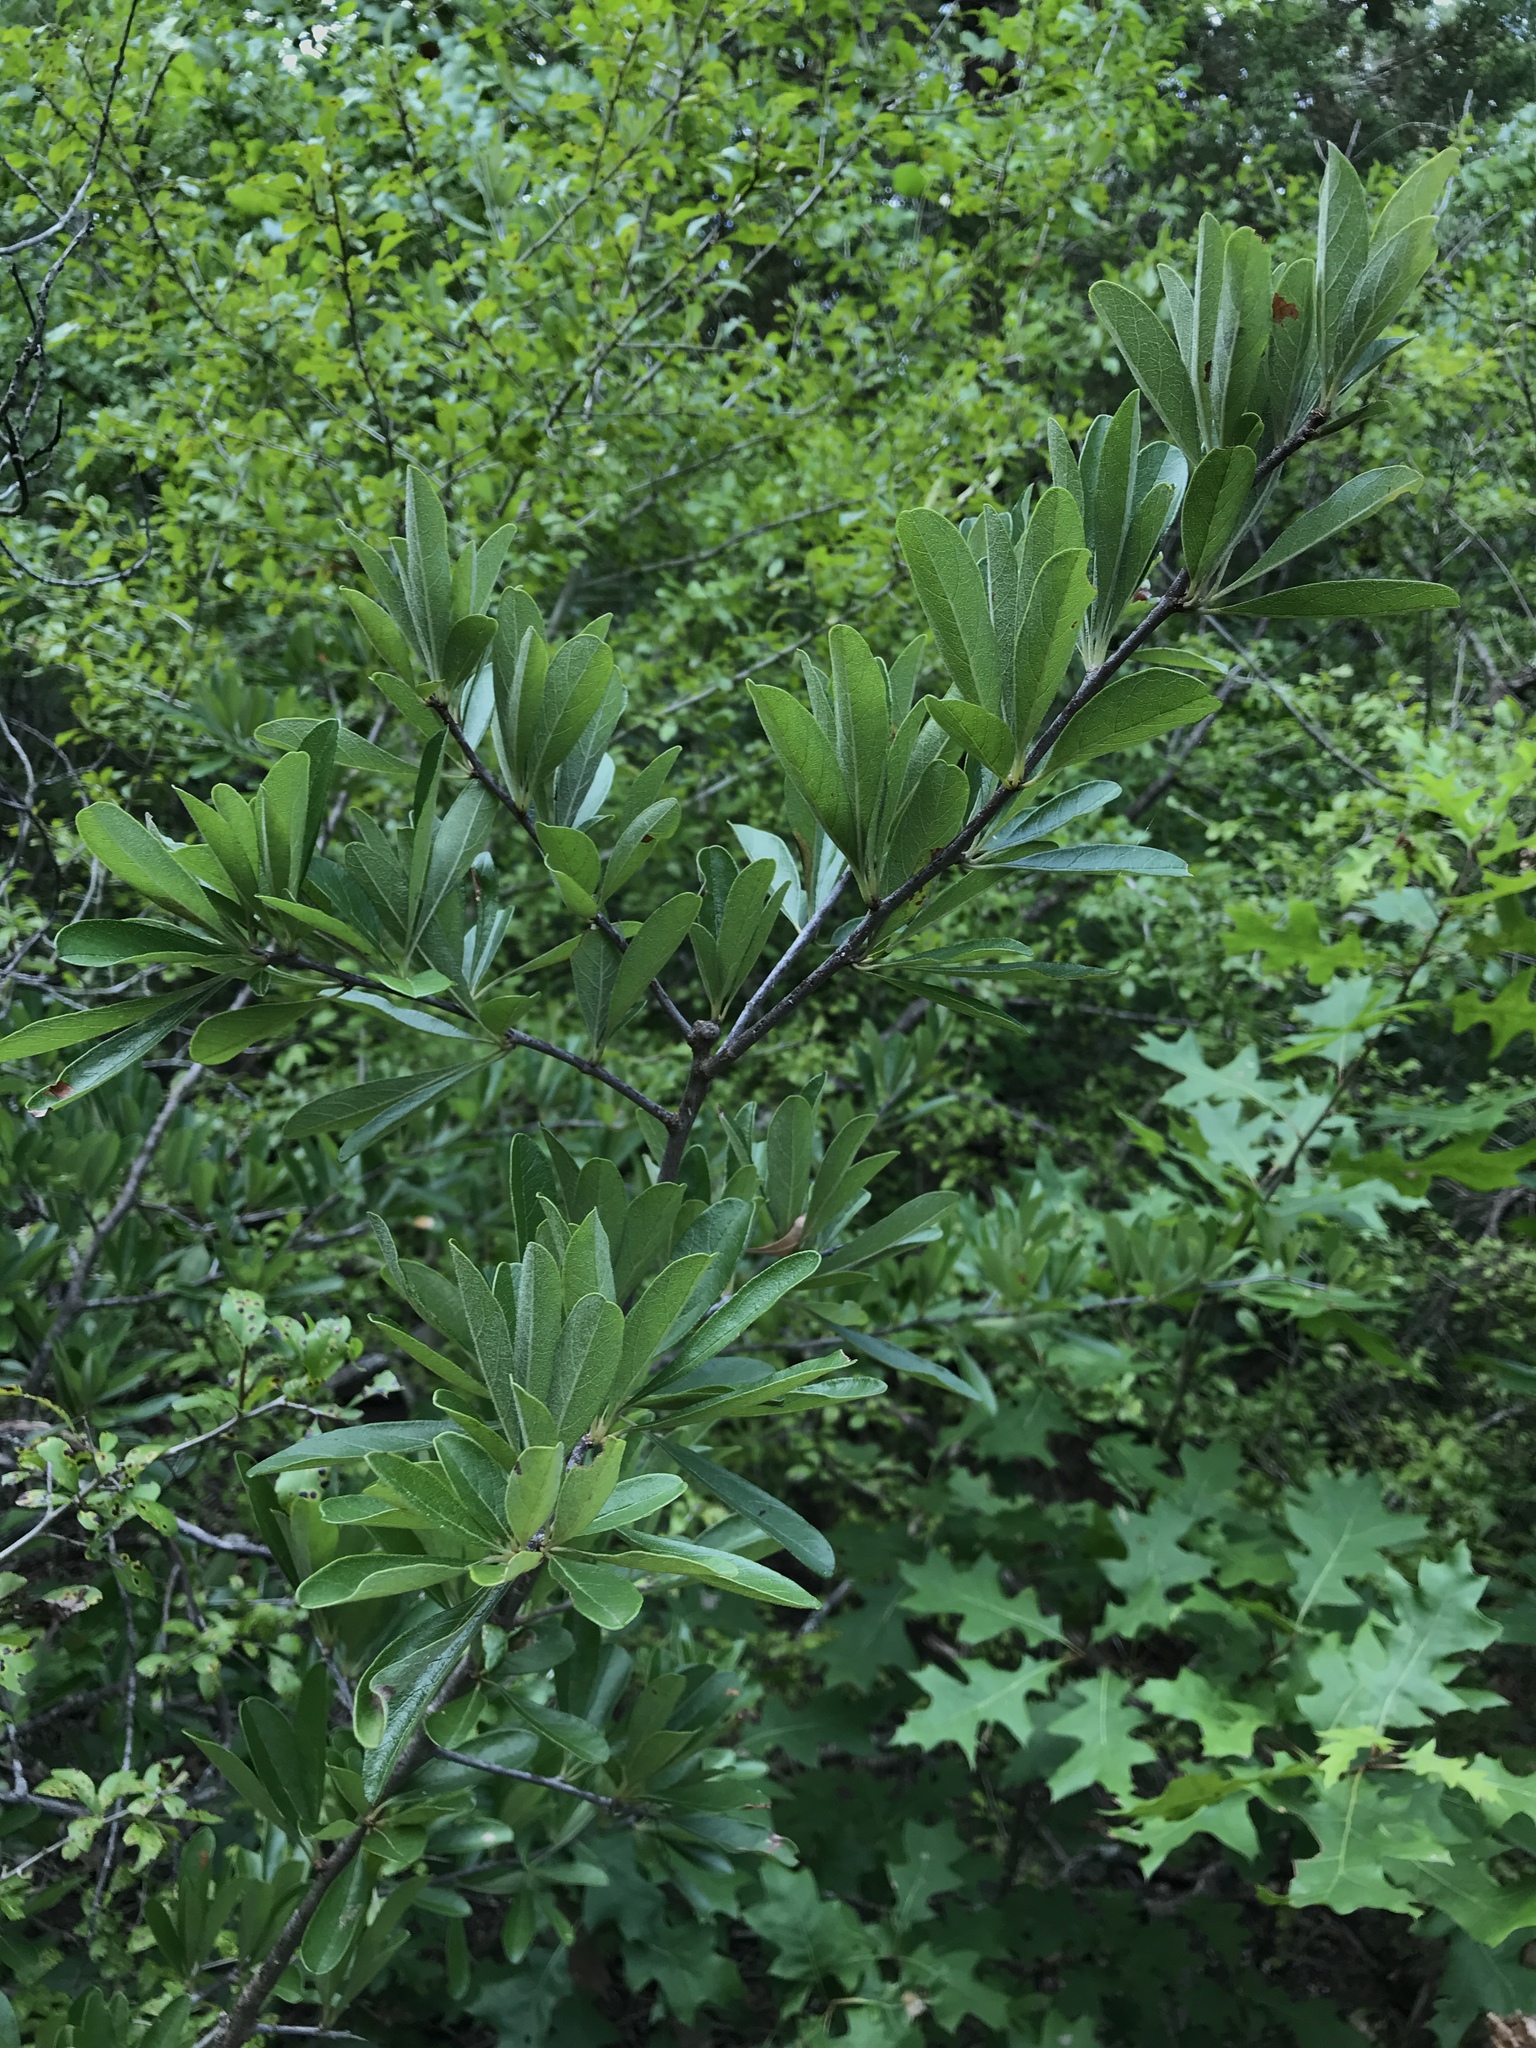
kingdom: Plantae
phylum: Tracheophyta
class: Magnoliopsida
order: Ericales
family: Sapotaceae
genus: Sideroxylon
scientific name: Sideroxylon lanuginosum
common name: Chittamwood
